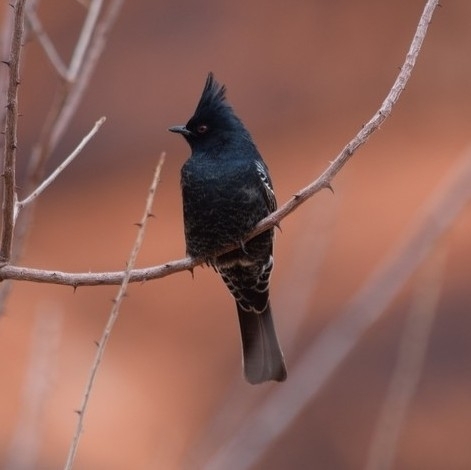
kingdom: Animalia
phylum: Chordata
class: Aves
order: Passeriformes
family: Ptilogonatidae
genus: Phainopepla
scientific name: Phainopepla nitens
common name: Phainopepla
